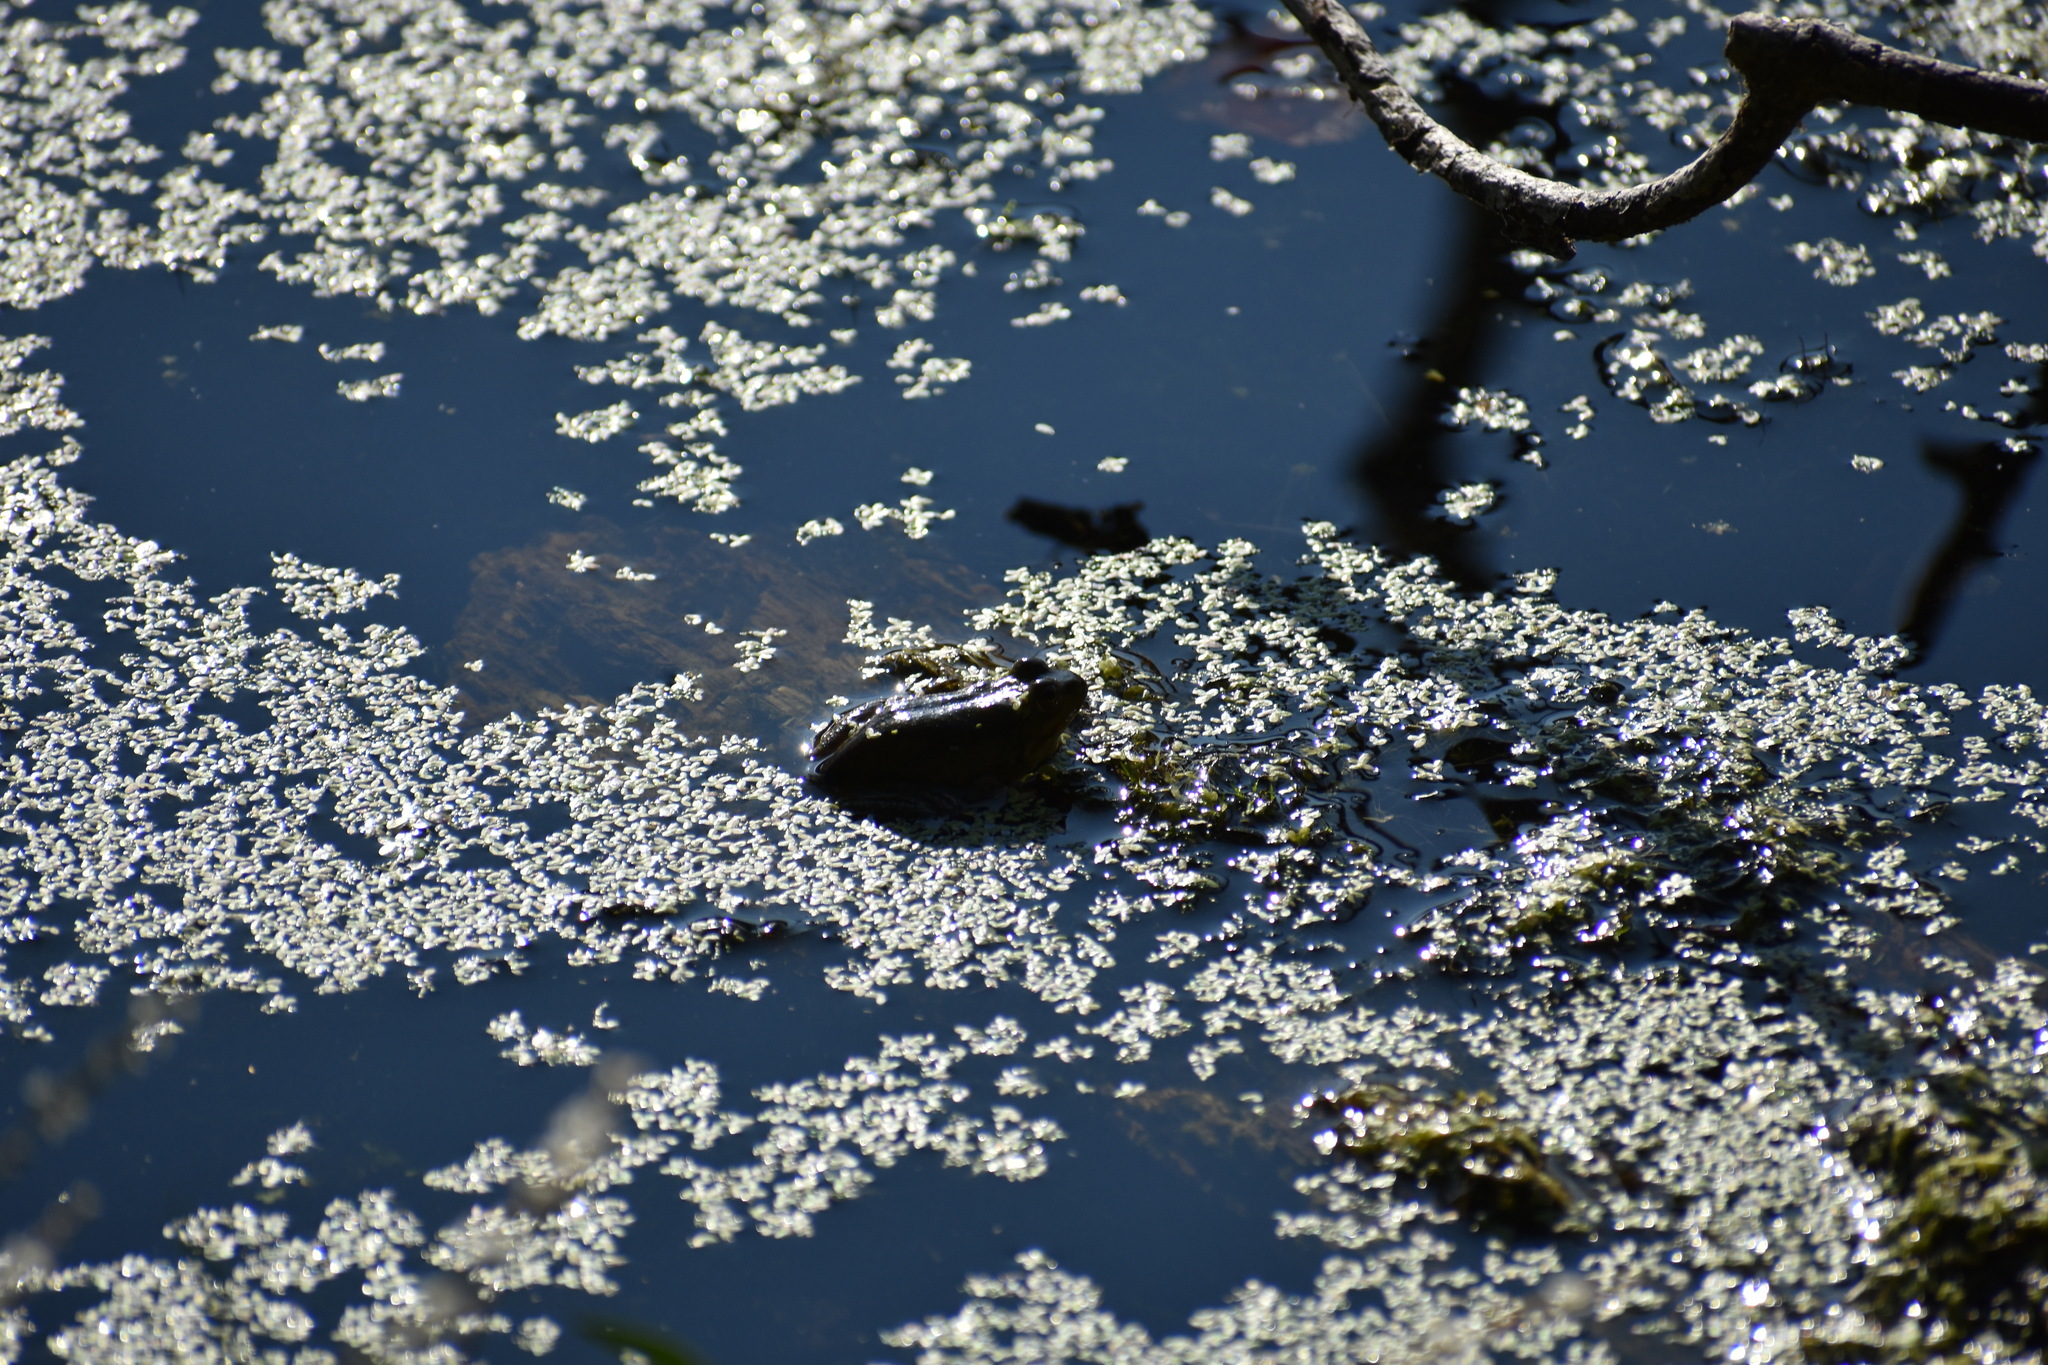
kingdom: Animalia
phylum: Chordata
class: Amphibia
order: Anura
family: Ranidae
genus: Lithobates
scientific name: Lithobates catesbeianus
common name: American bullfrog
